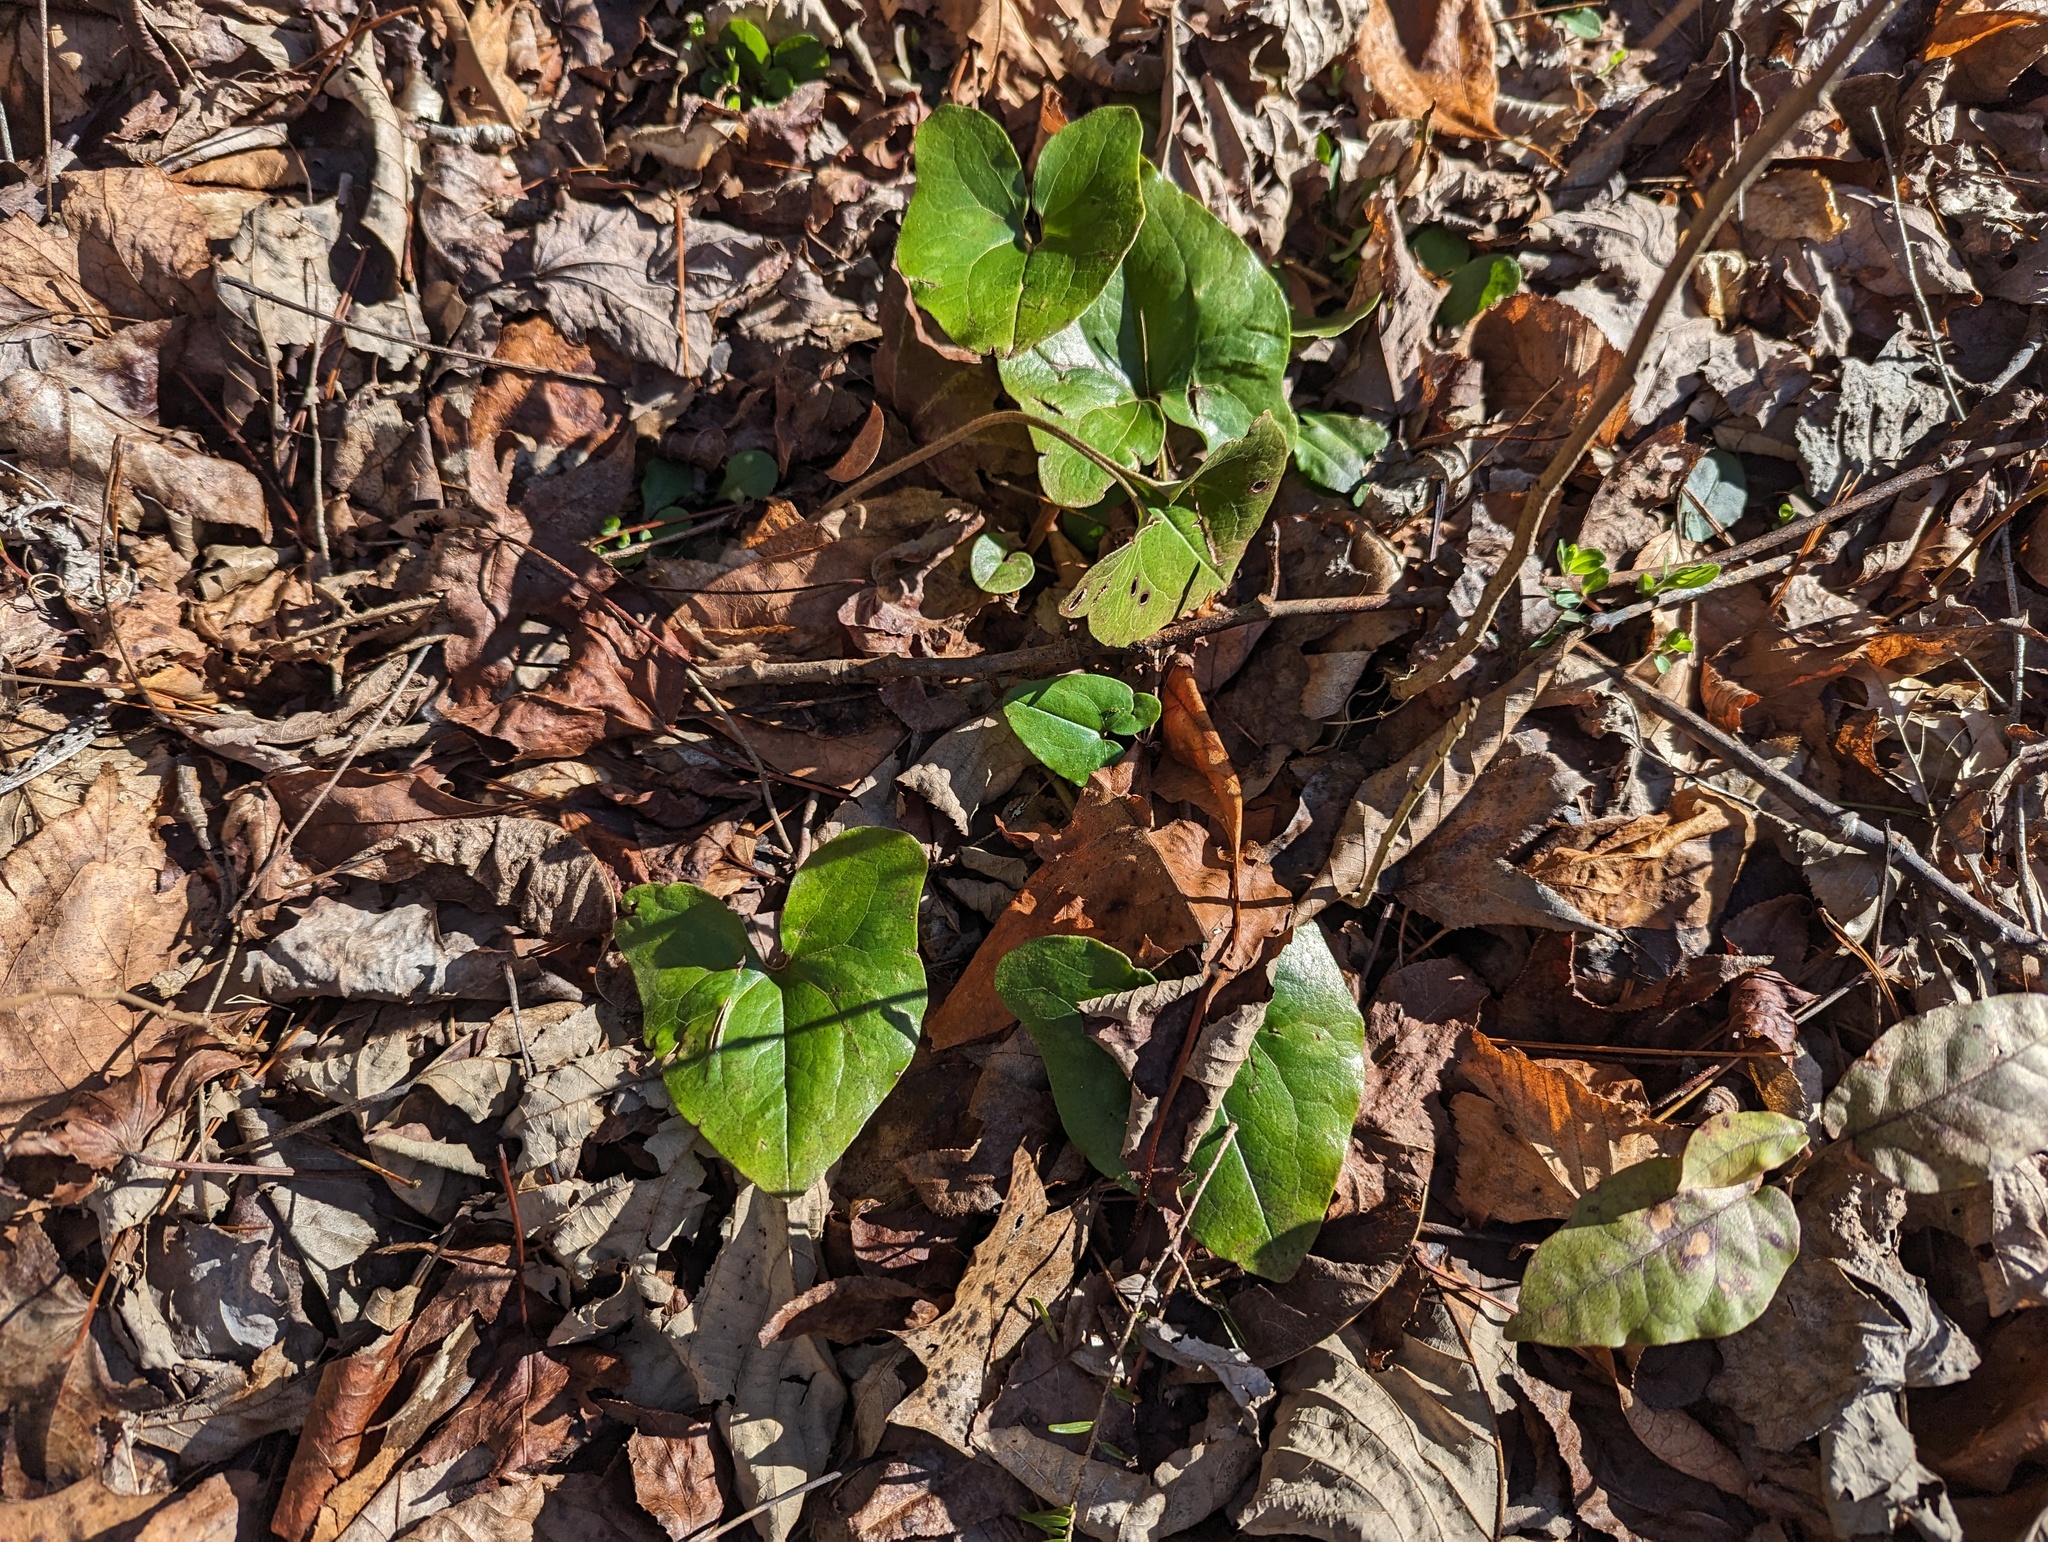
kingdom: Plantae
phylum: Tracheophyta
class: Magnoliopsida
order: Piperales
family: Aristolochiaceae
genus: Hexastylis
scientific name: Hexastylis arifolia
